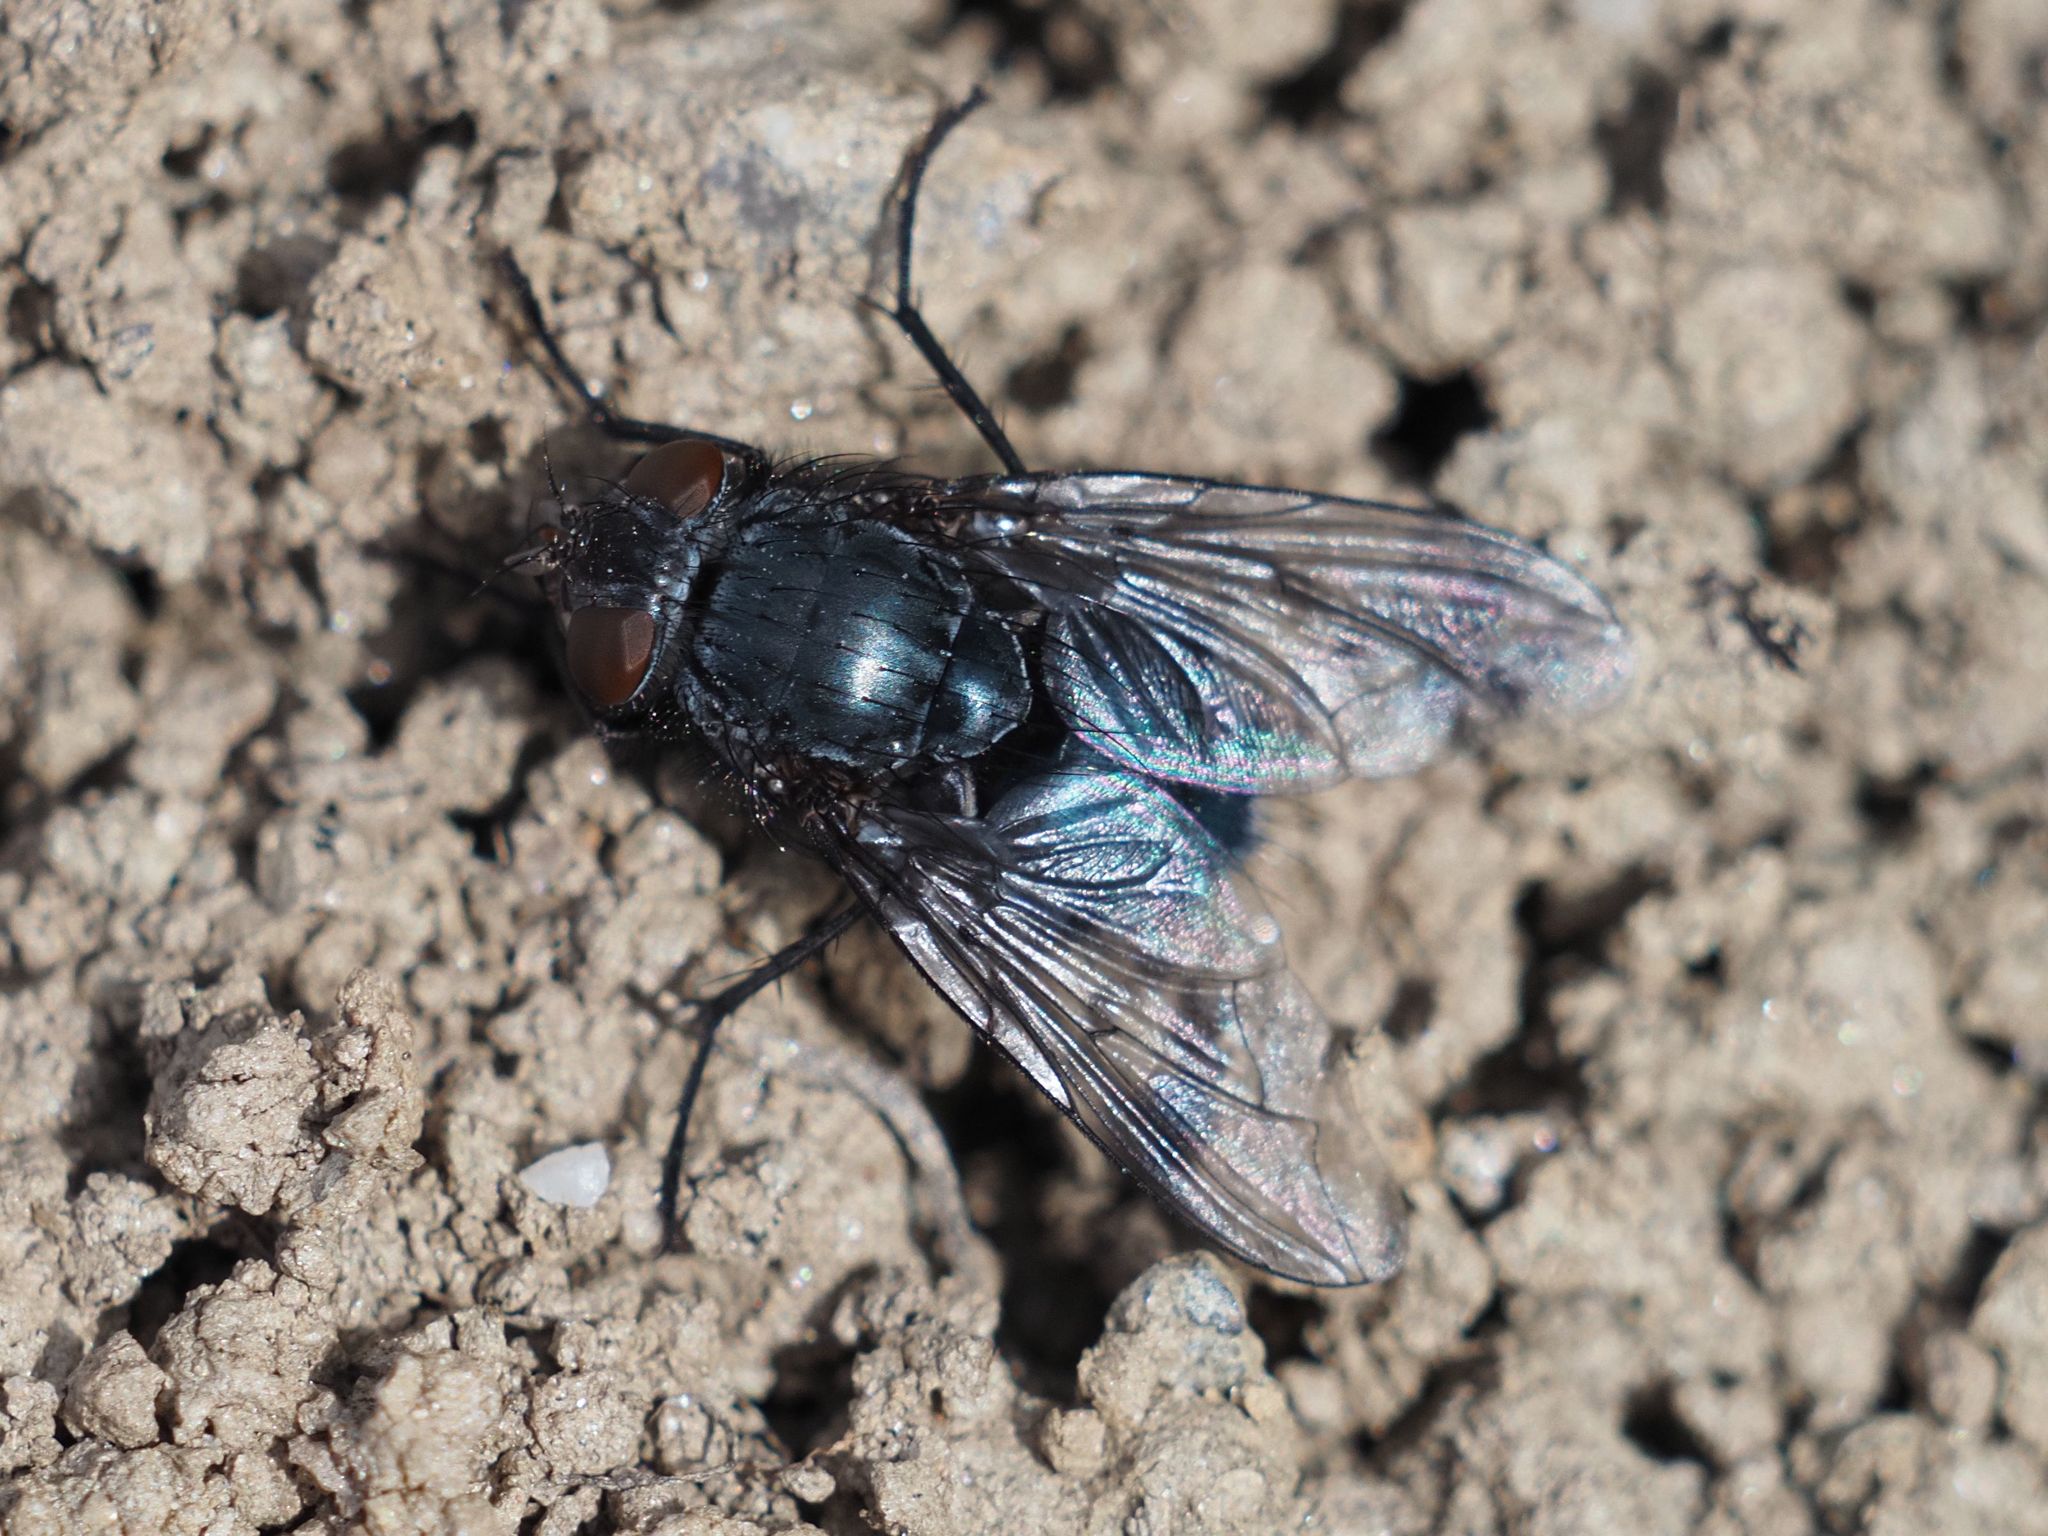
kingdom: Animalia
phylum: Arthropoda
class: Insecta
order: Diptera
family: Calliphoridae
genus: Calliphora
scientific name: Calliphora vicina
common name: Common blow flie
